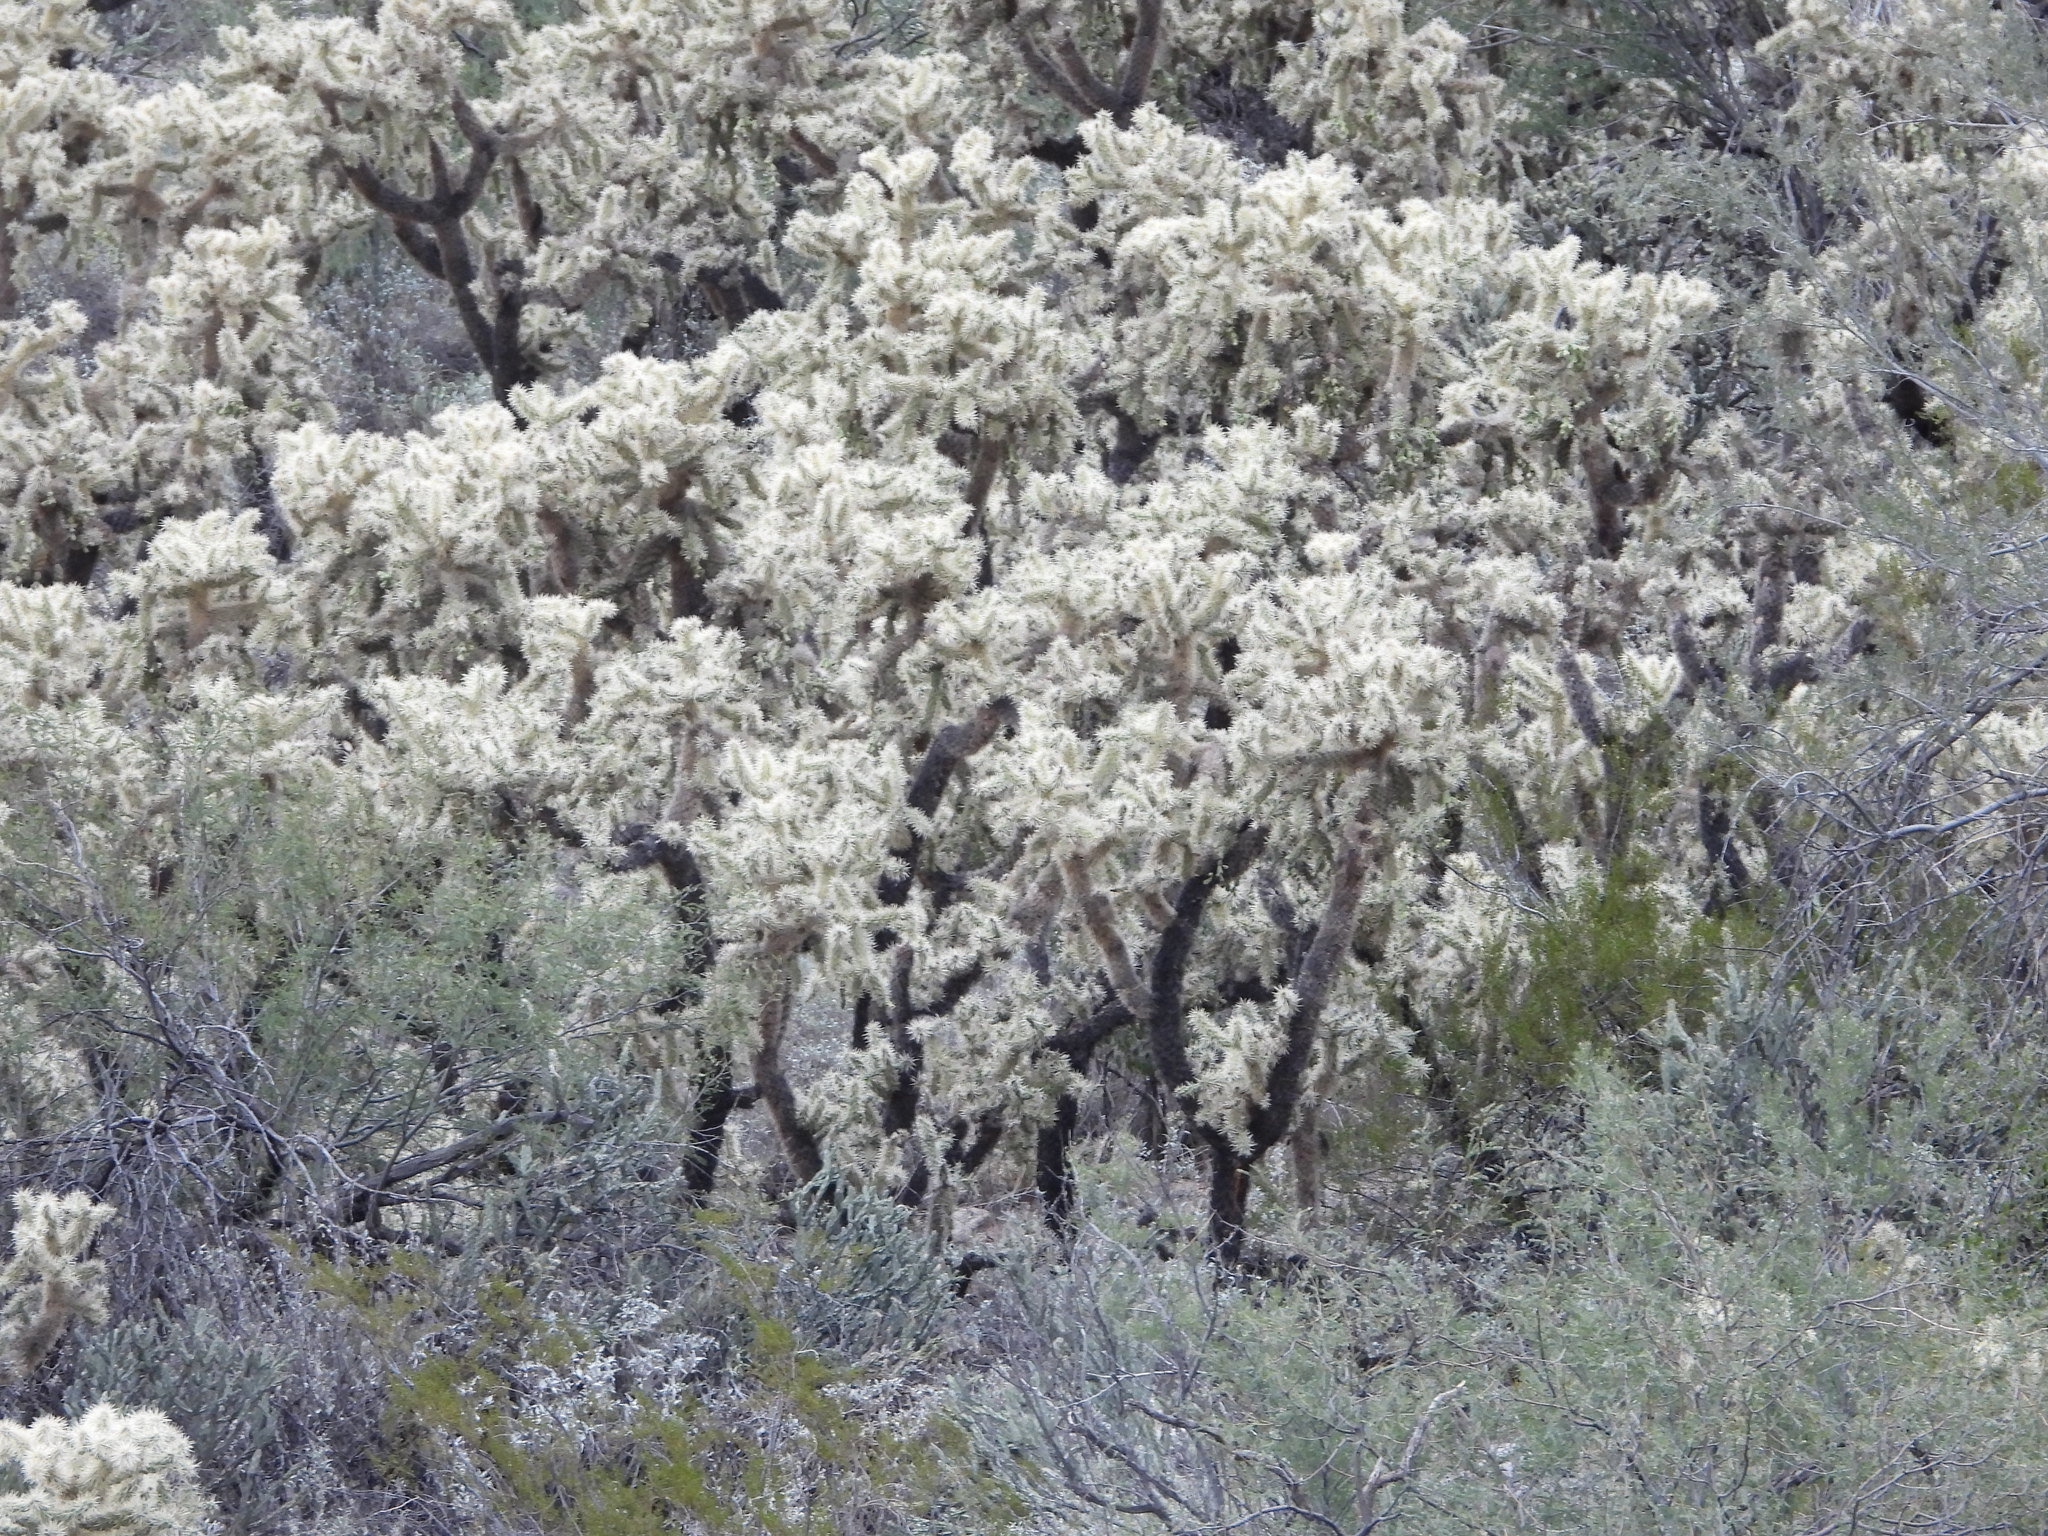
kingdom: Plantae
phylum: Tracheophyta
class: Magnoliopsida
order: Caryophyllales
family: Cactaceae
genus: Cylindropuntia
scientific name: Cylindropuntia fulgida
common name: Jumping cholla
